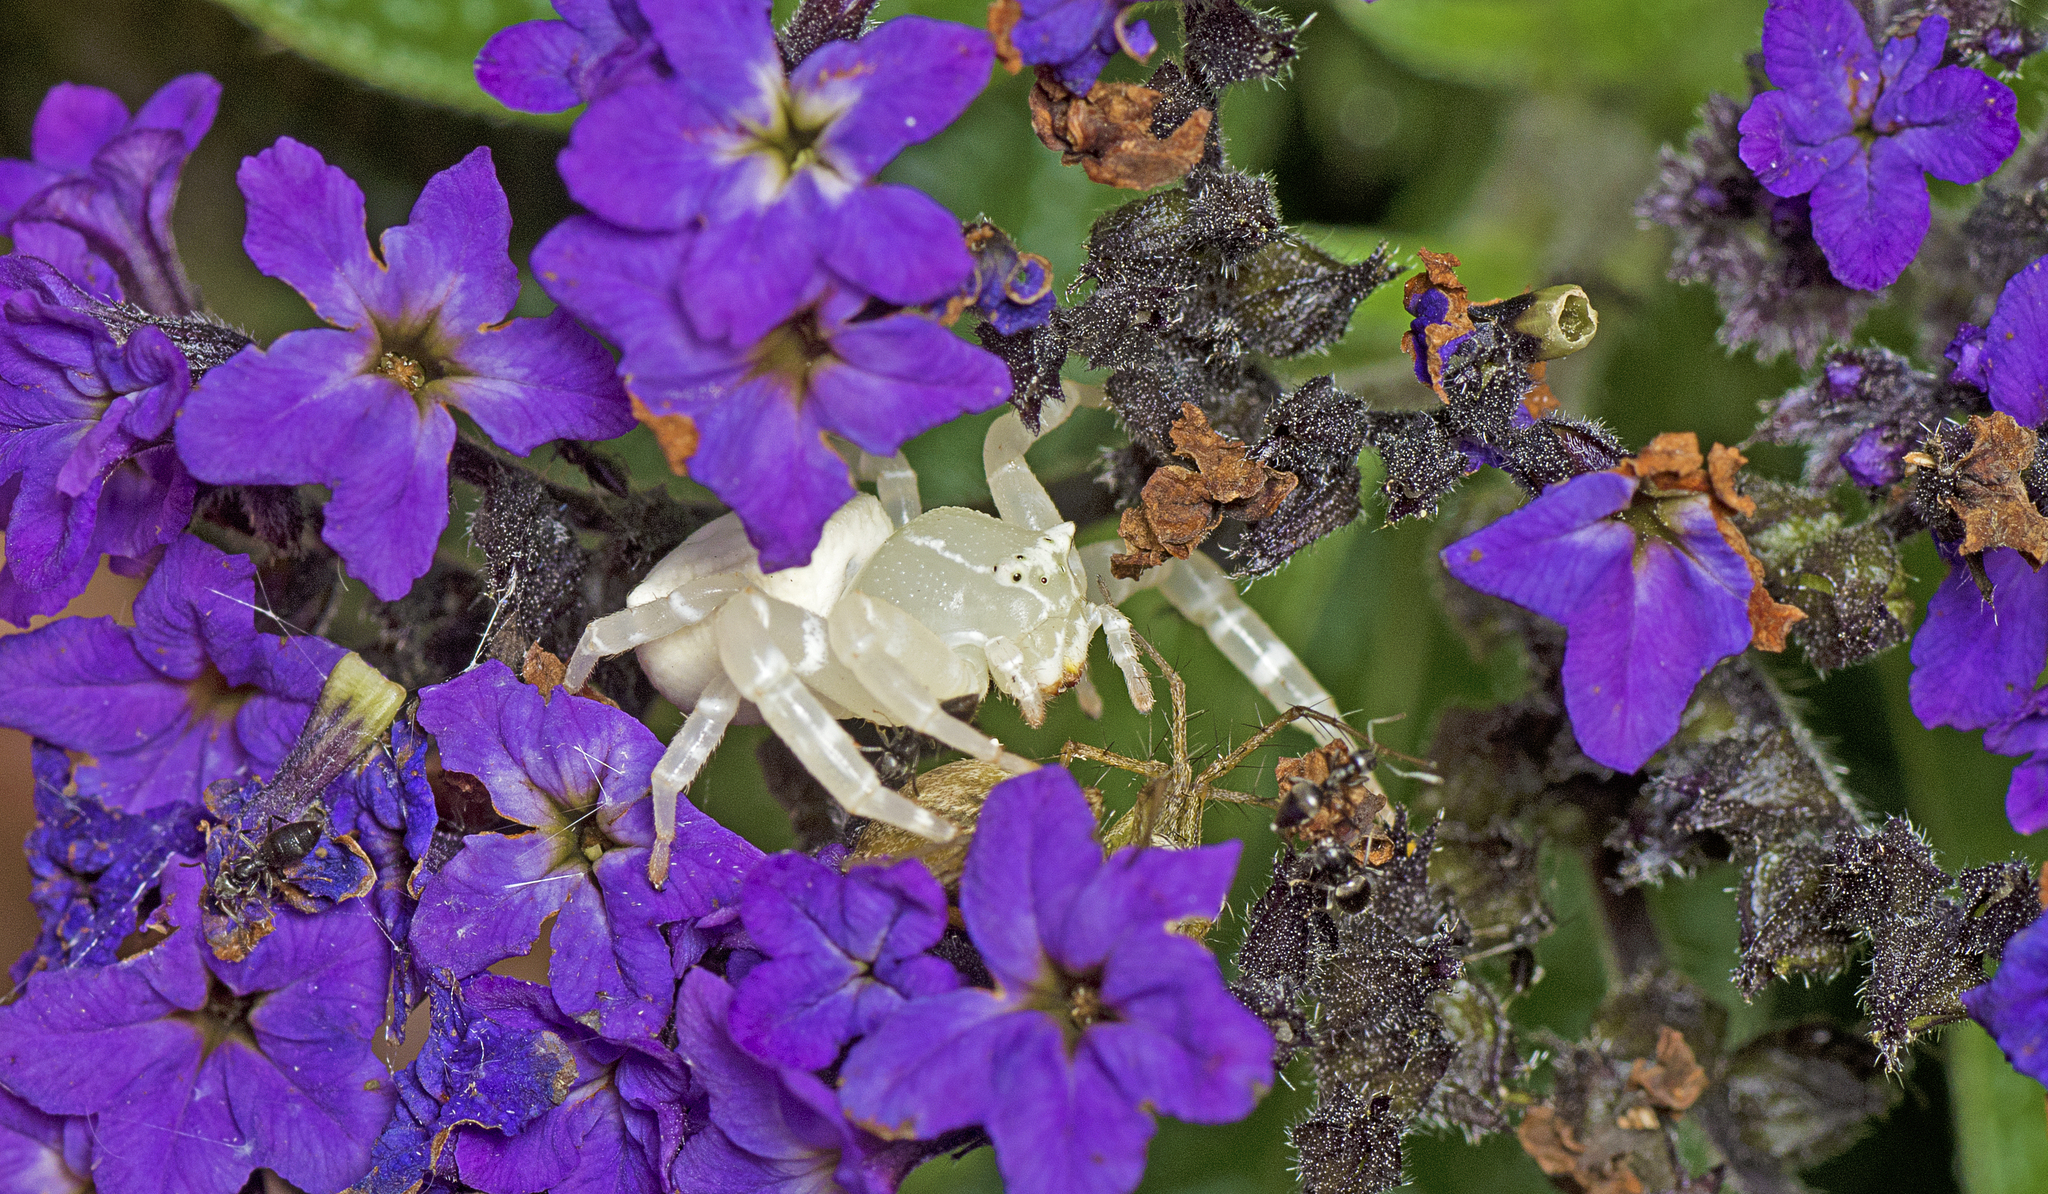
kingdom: Animalia
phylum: Arthropoda
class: Arachnida
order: Araneae
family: Thomisidae
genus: Thomisus
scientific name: Thomisus spectabilis
